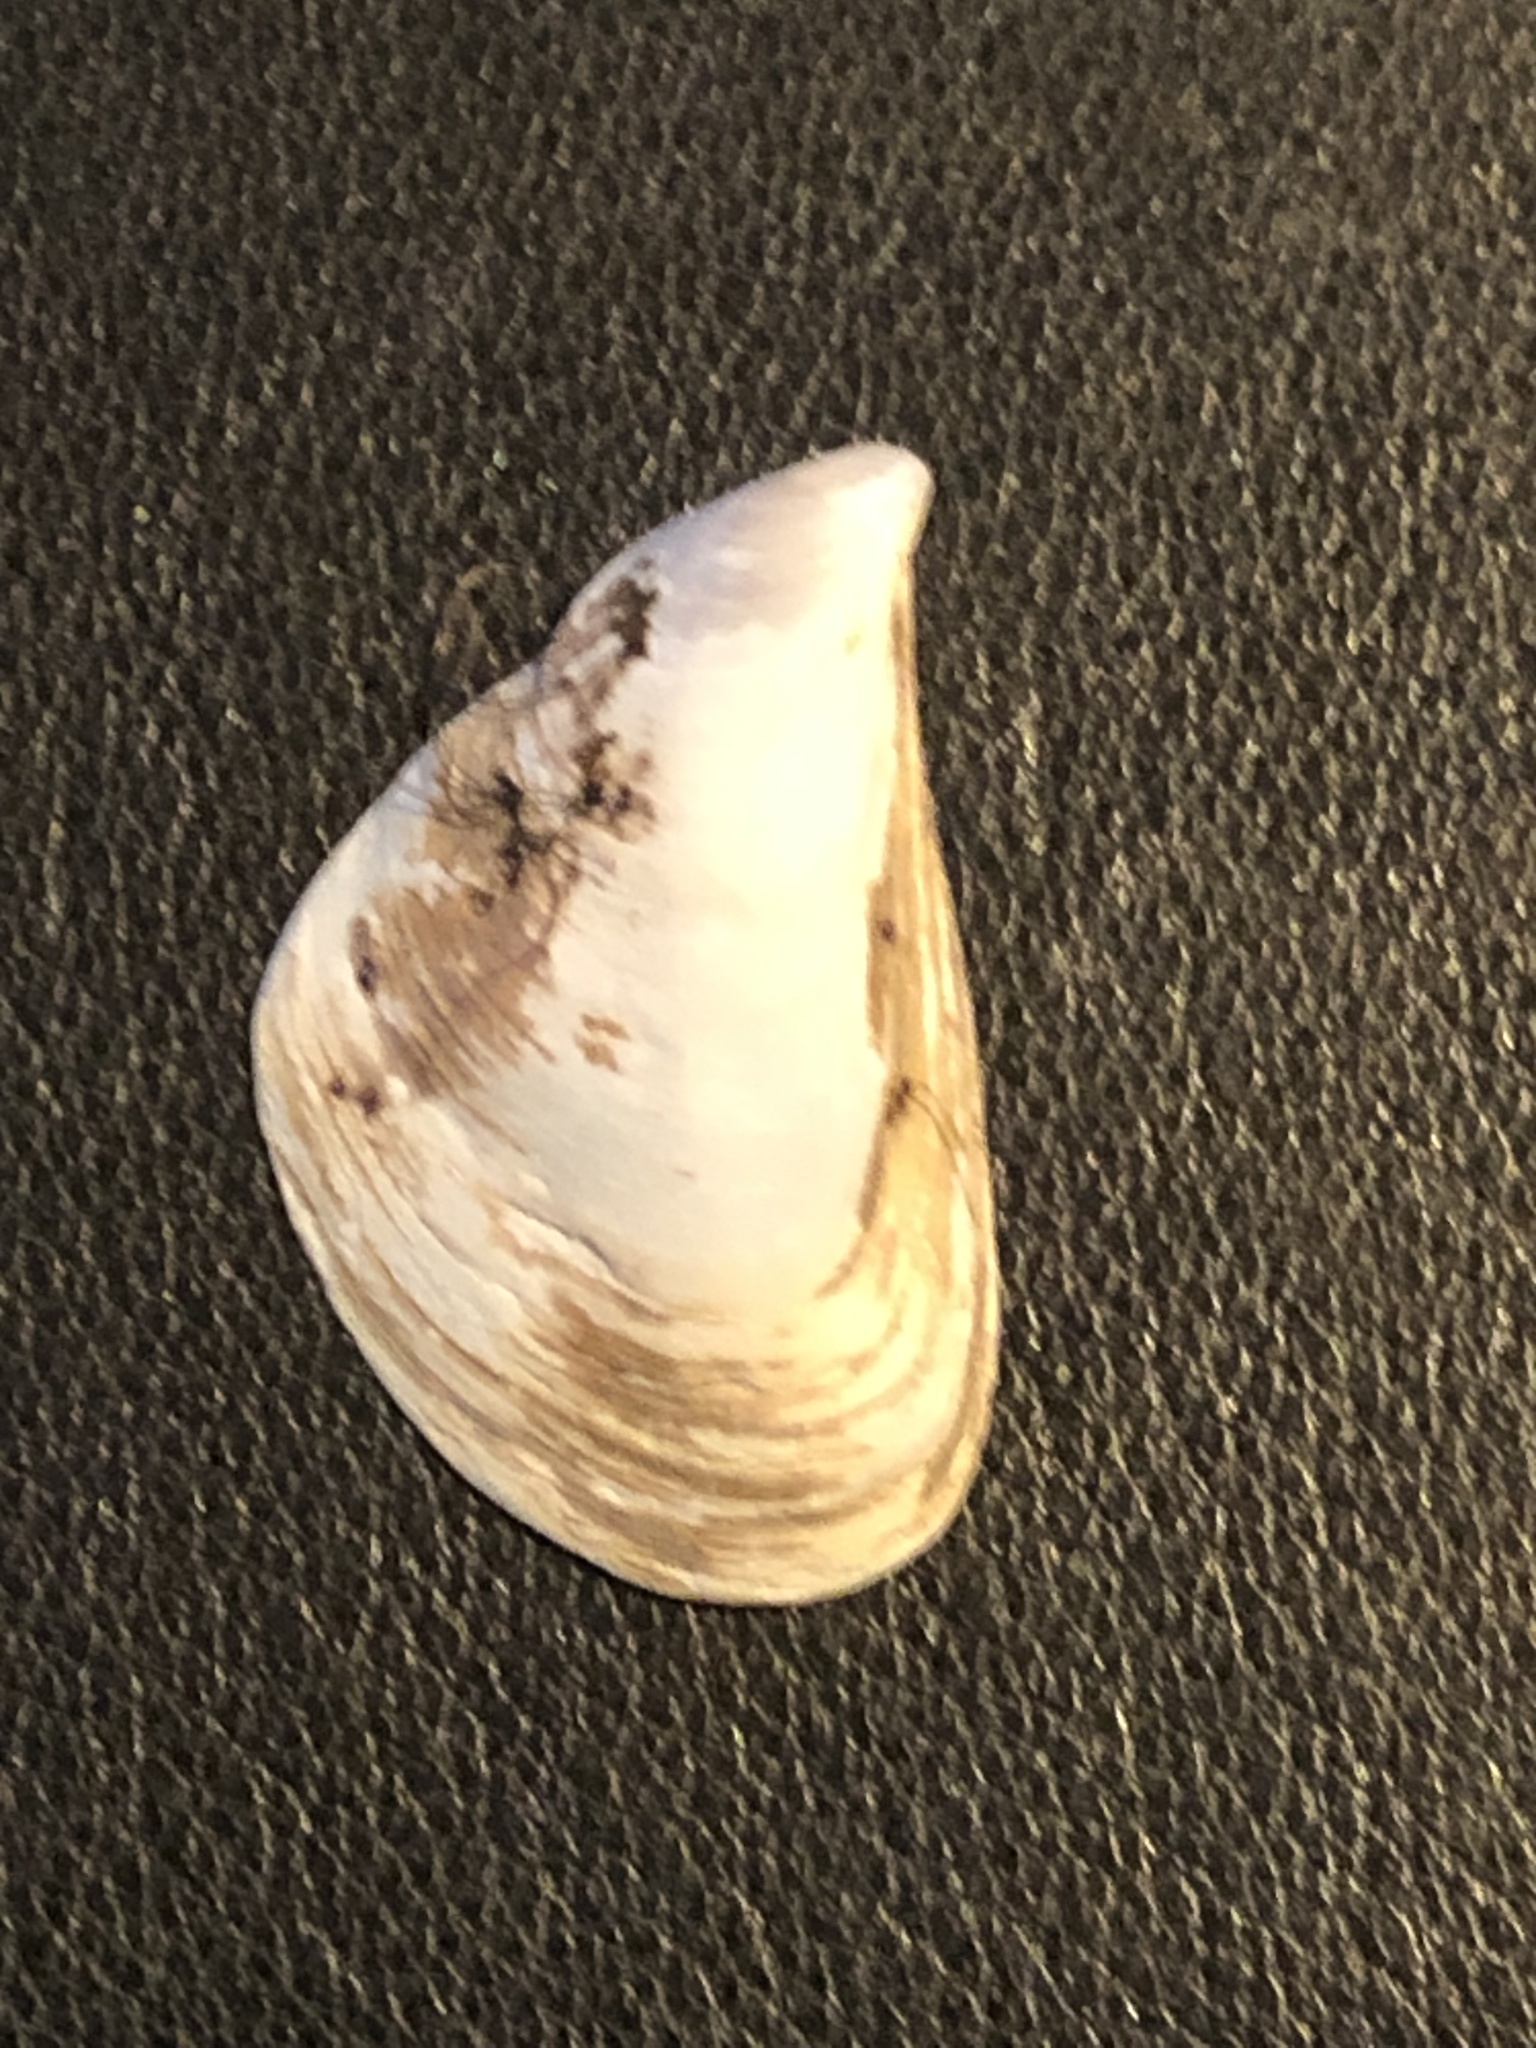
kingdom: Animalia
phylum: Mollusca
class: Bivalvia
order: Myida
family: Dreissenidae
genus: Dreissena
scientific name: Dreissena bugensis
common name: Quagga mussel
